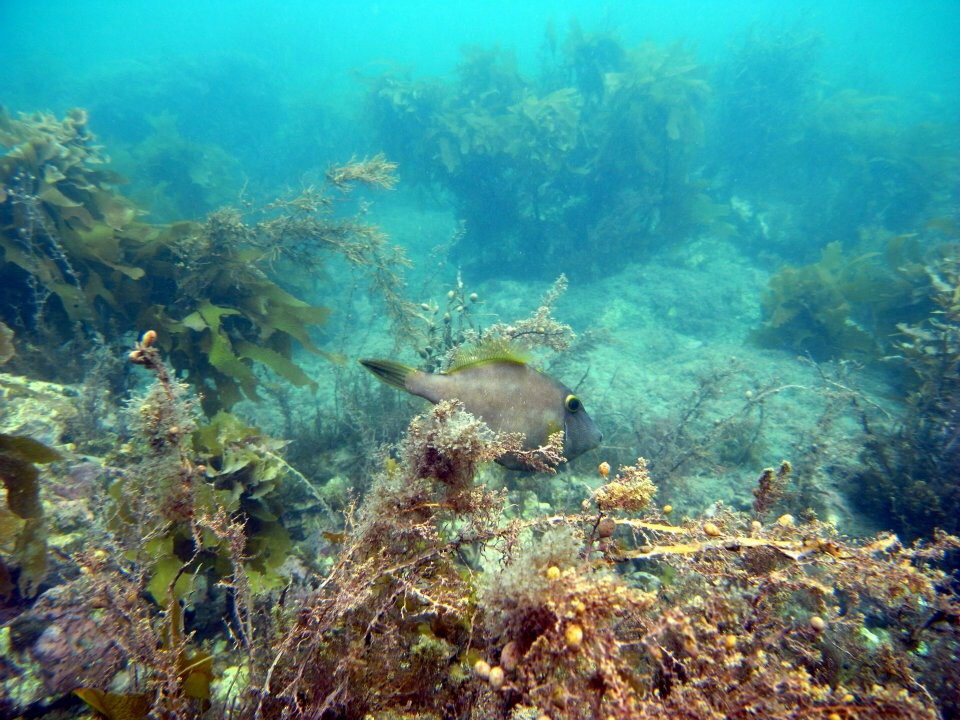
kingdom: Animalia
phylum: Chordata
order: Tetraodontiformes
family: Monacanthidae
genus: Meuschenia
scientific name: Meuschenia scaber
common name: Cosmopolitan leatherjacket
